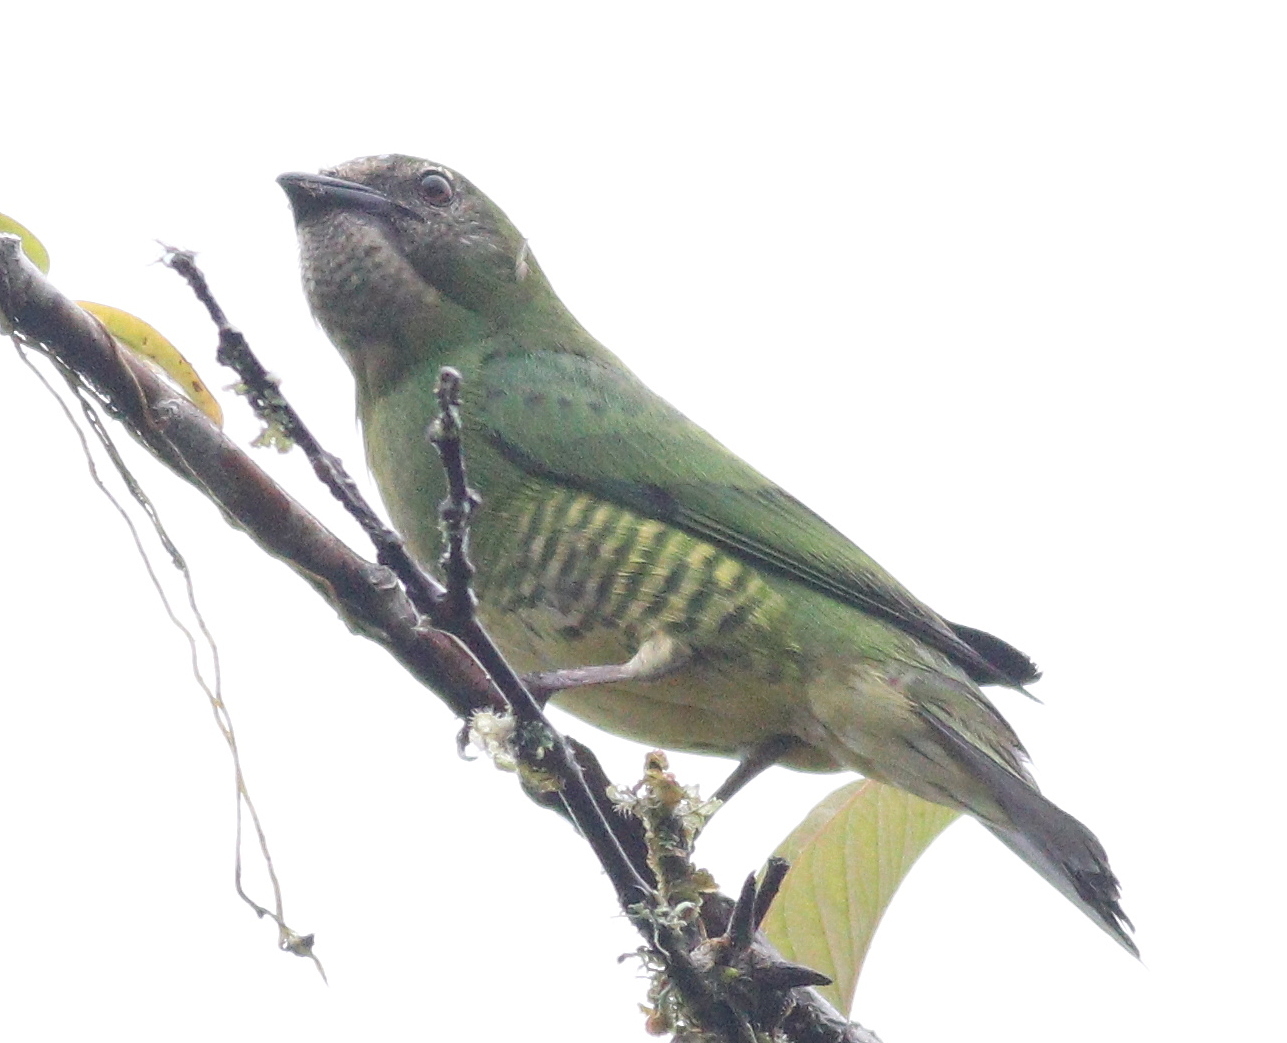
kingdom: Animalia
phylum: Chordata
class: Aves
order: Passeriformes
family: Thraupidae
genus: Tersina
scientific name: Tersina viridis
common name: Swallow tanager
